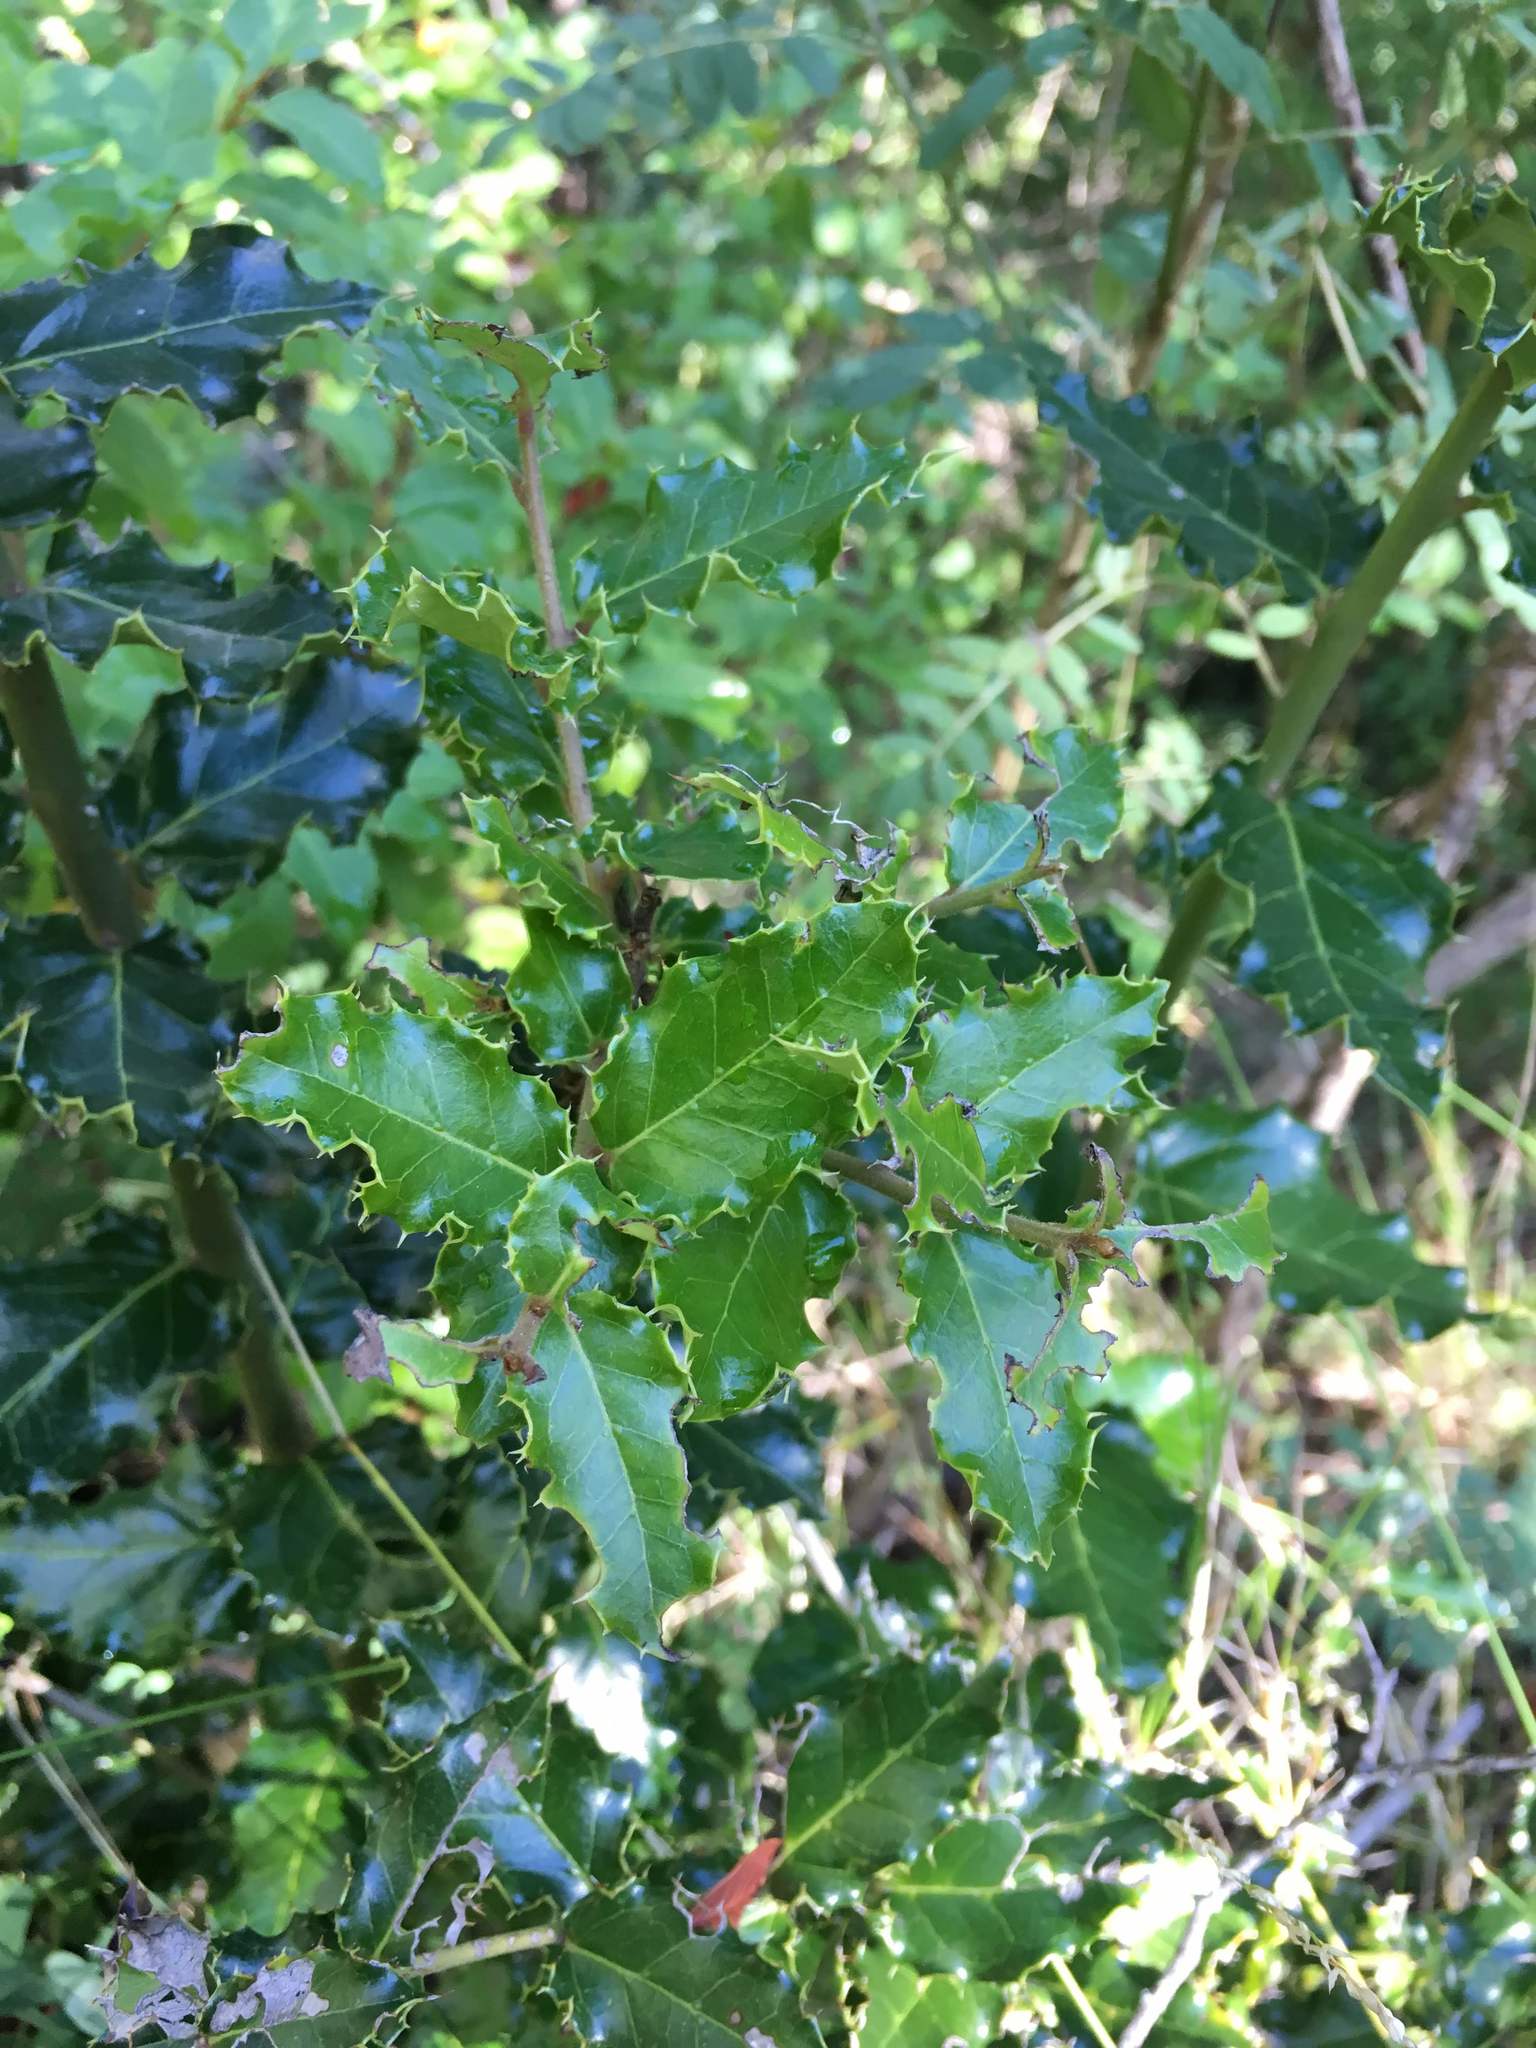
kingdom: Plantae
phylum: Tracheophyta
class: Magnoliopsida
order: Cardiopteridales
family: Cardiopteridaceae
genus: Citronella
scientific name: Citronella mucronata
